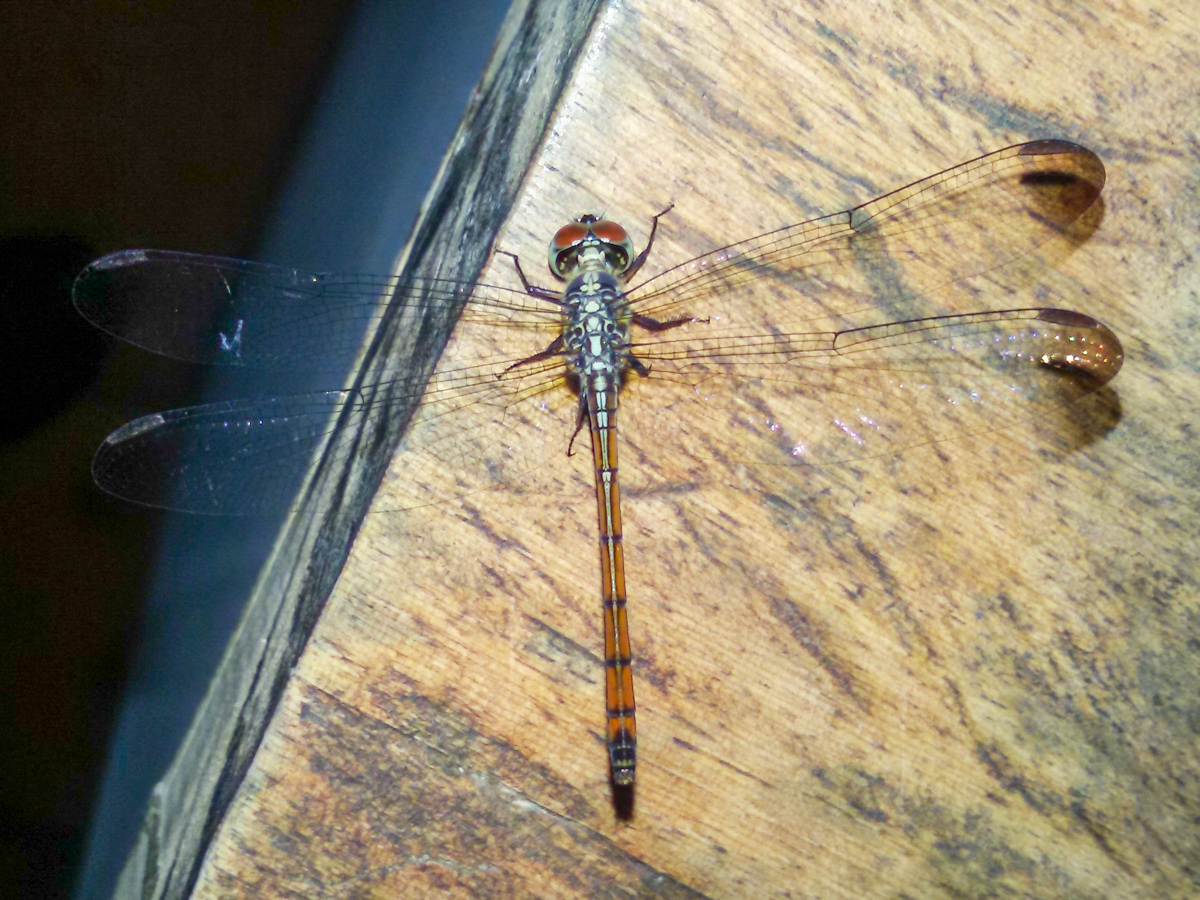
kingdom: Animalia
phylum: Arthropoda
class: Insecta
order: Odonata
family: Libellulidae
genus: Lathrecista
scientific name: Lathrecista asiatica
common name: Scarlet grenadier
